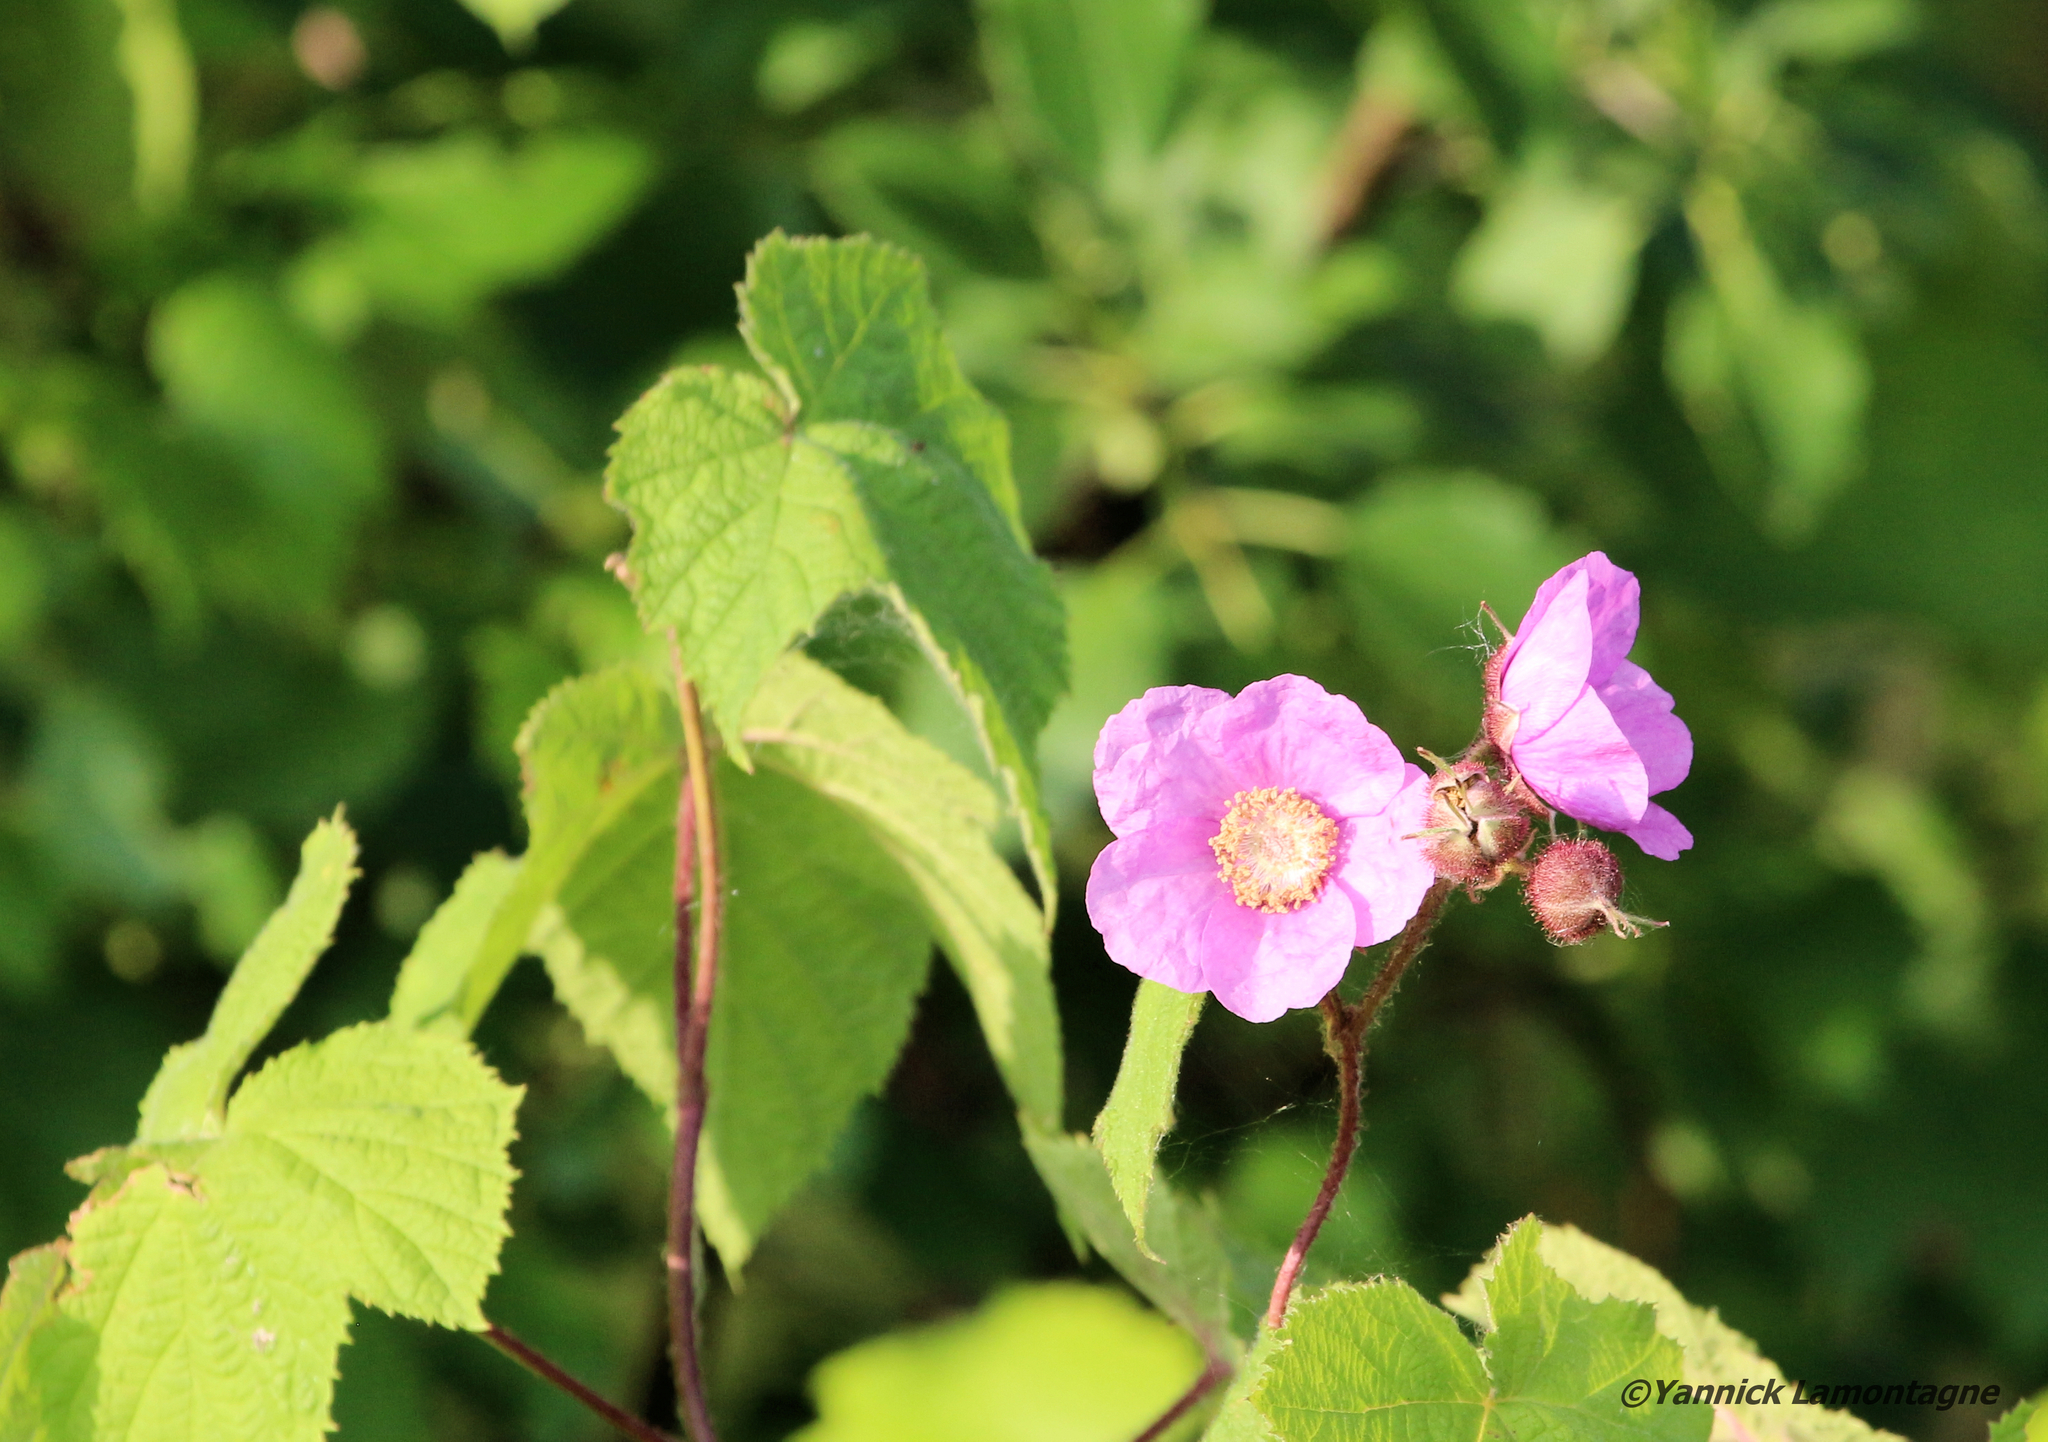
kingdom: Plantae
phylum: Tracheophyta
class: Magnoliopsida
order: Rosales
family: Rosaceae
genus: Rubus
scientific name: Rubus odoratus
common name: Purple-flowered raspberry
